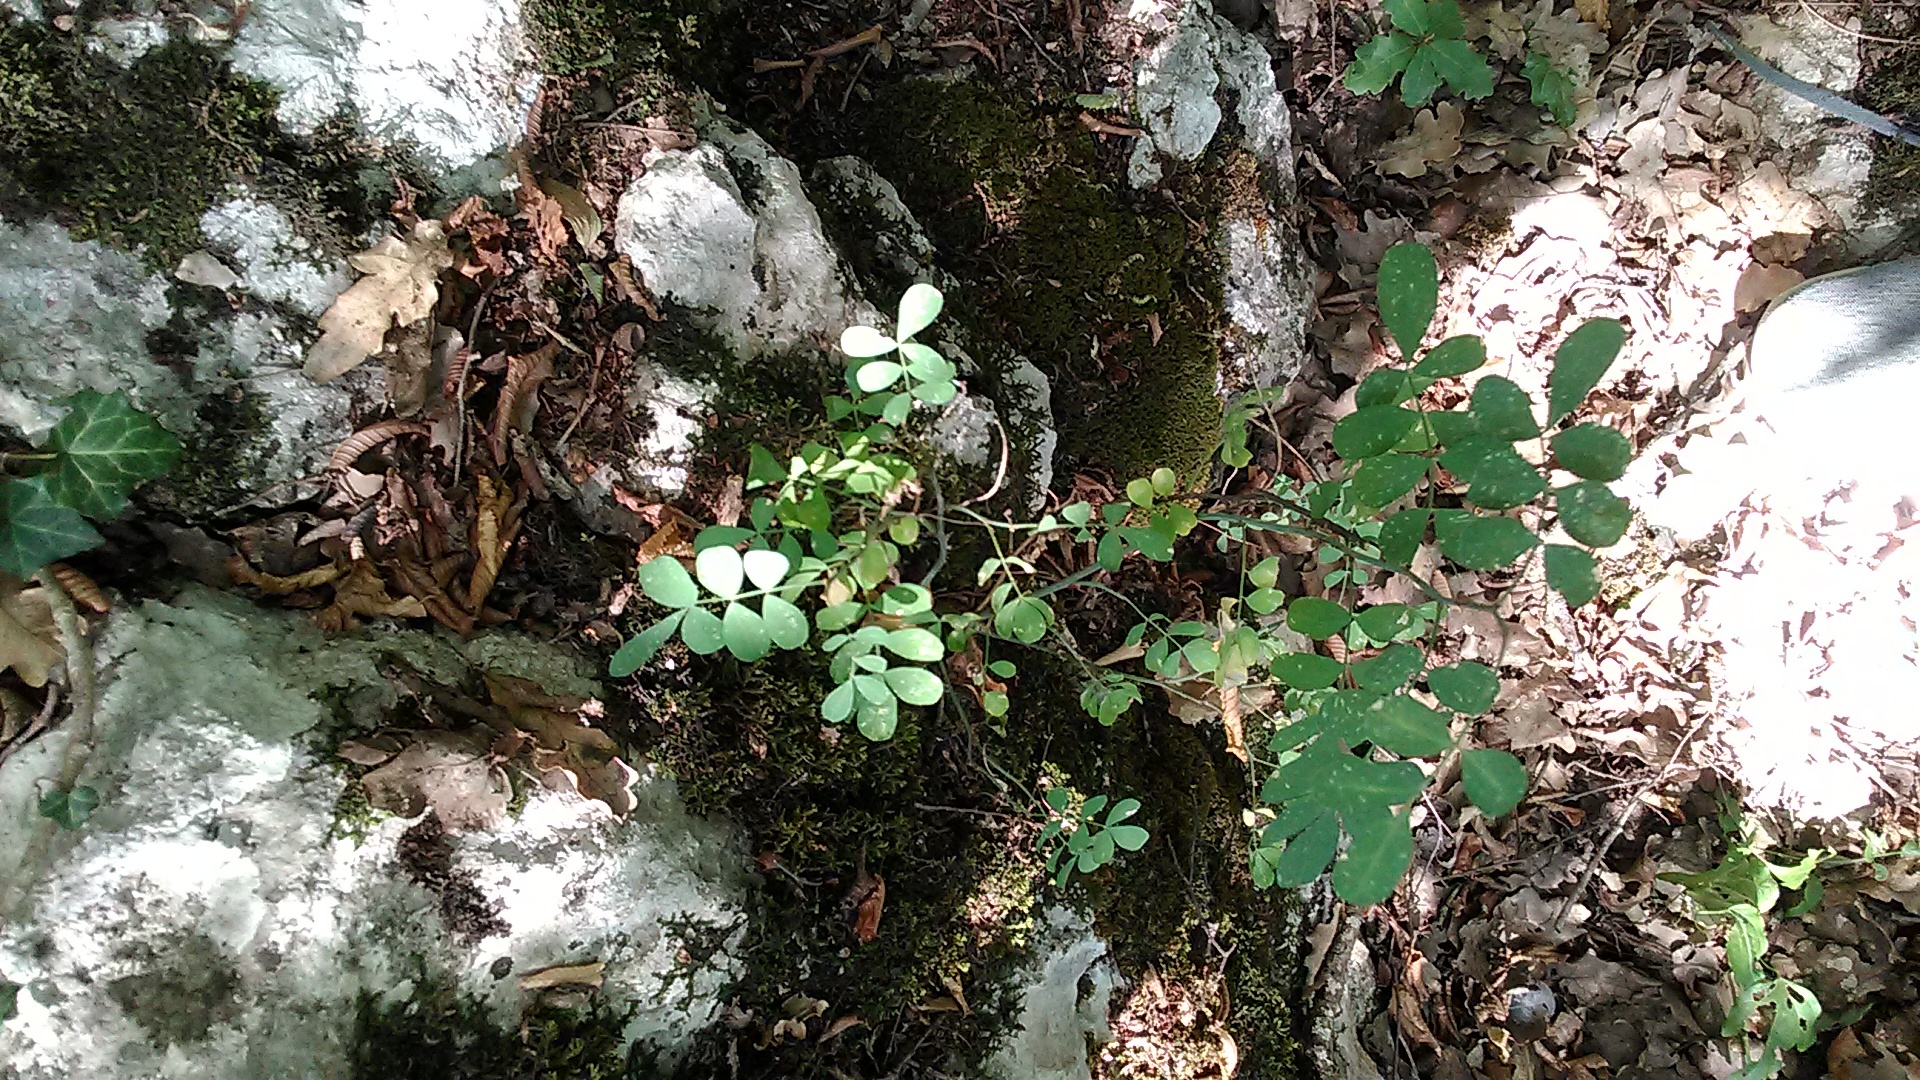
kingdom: Plantae
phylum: Tracheophyta
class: Magnoliopsida
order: Fabales
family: Fabaceae
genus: Coronilla
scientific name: Coronilla coronata
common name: Scorpion-vetch
